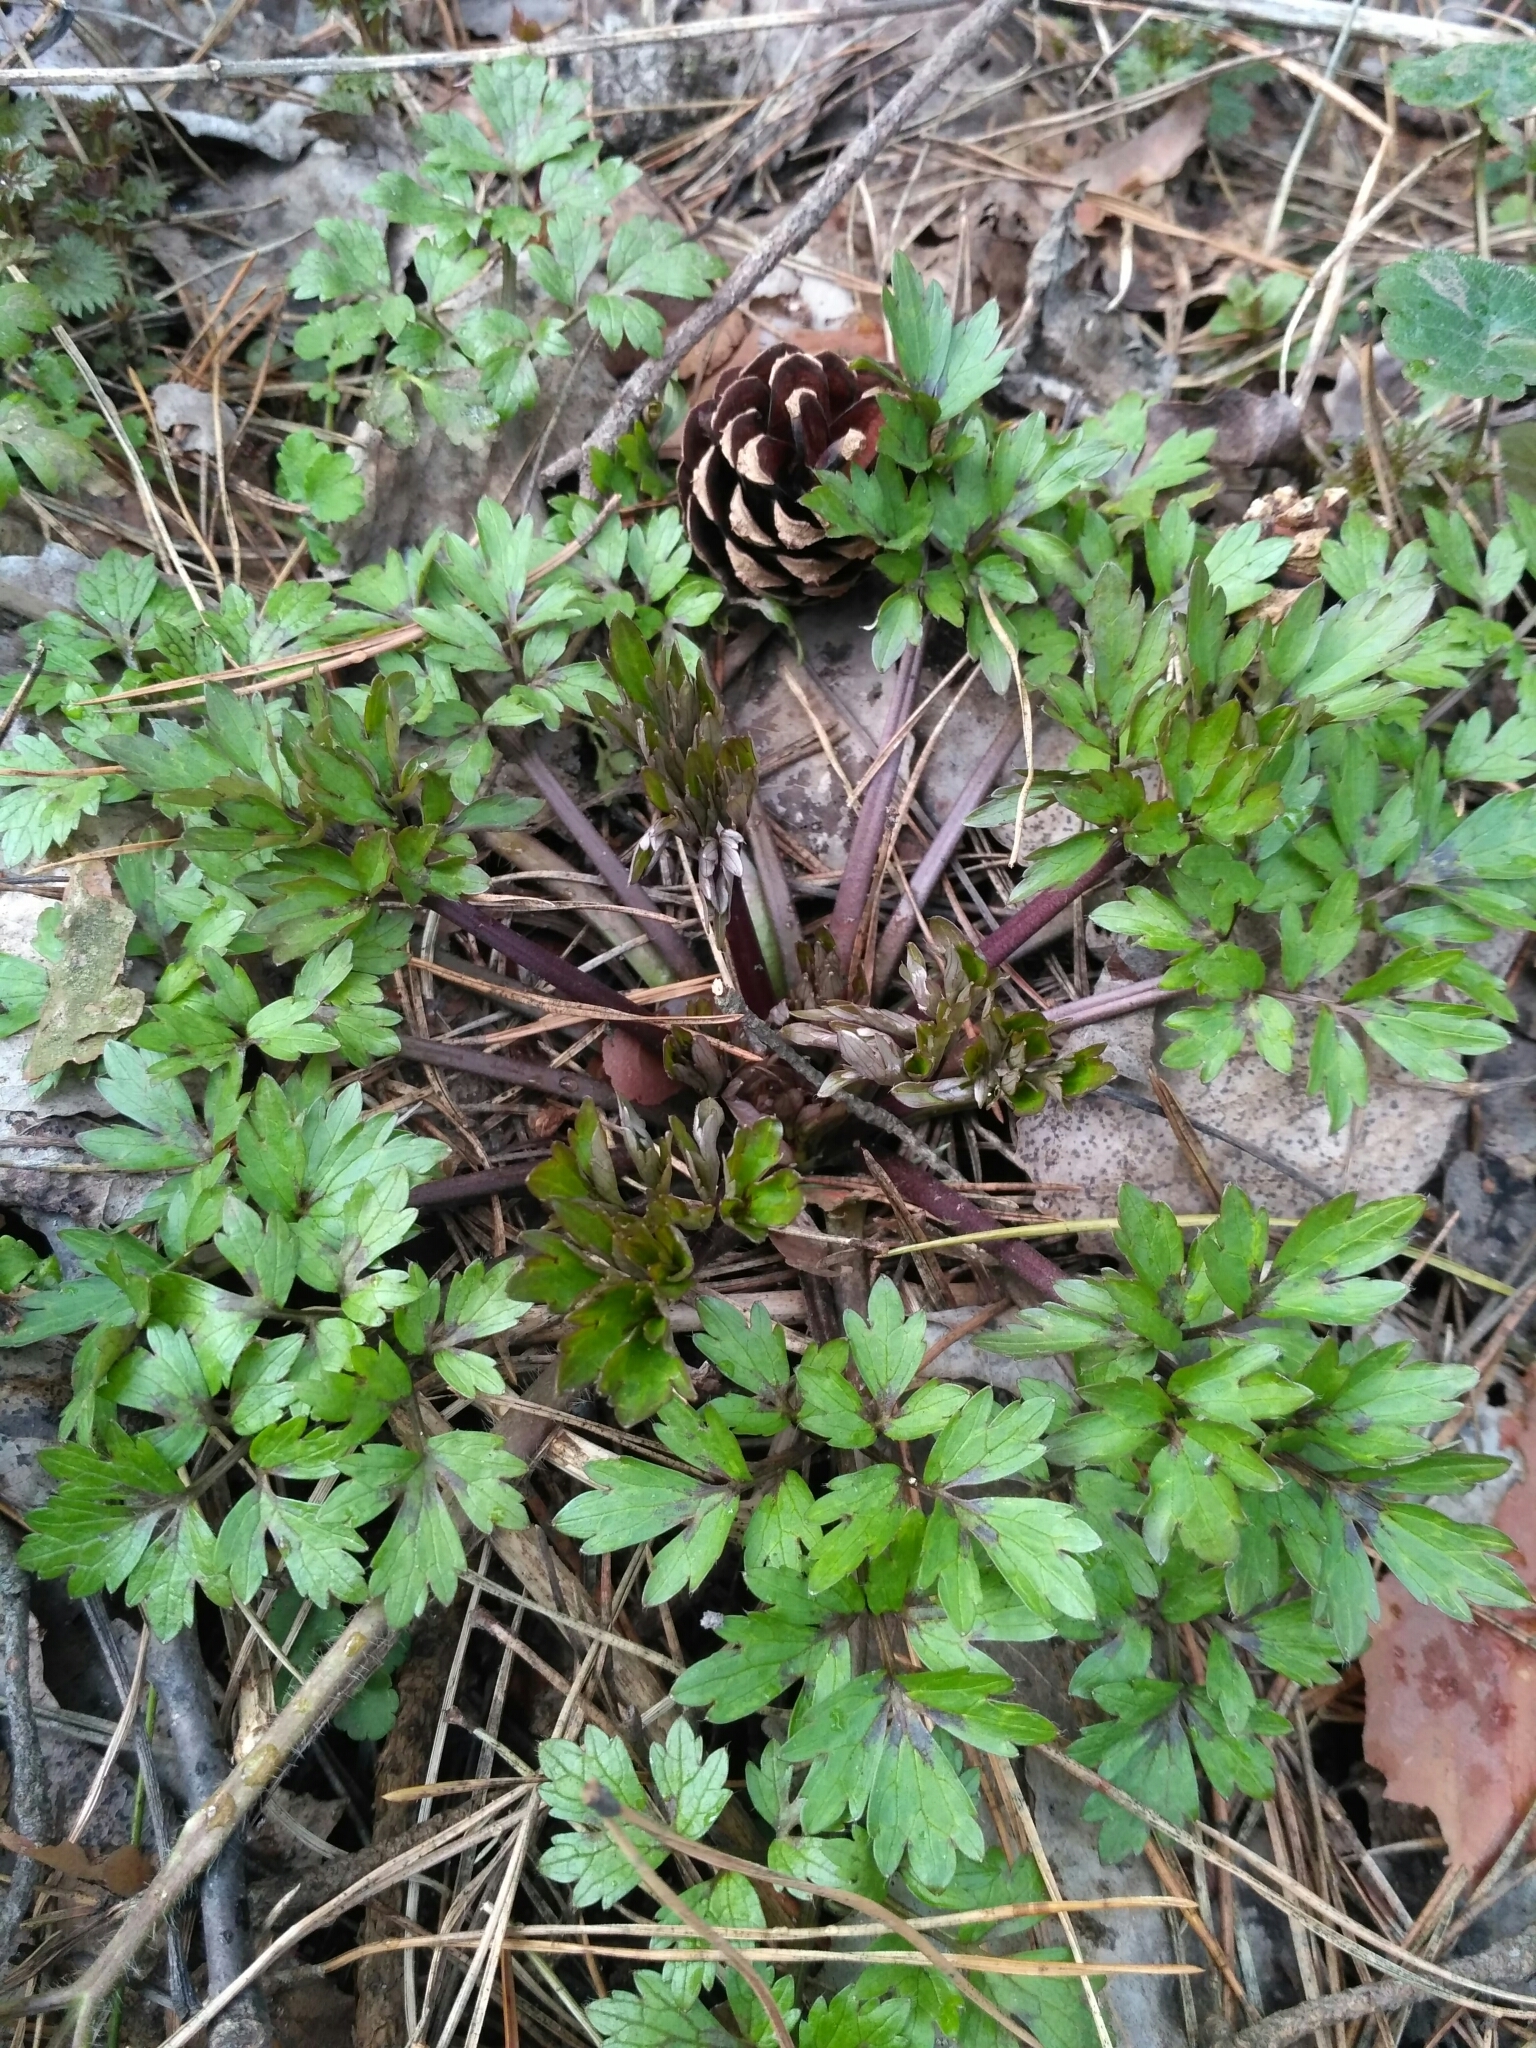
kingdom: Plantae
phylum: Tracheophyta
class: Magnoliopsida
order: Ranunculales
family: Ranunculaceae
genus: Ranunculus
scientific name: Ranunculus repens
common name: Creeping buttercup
